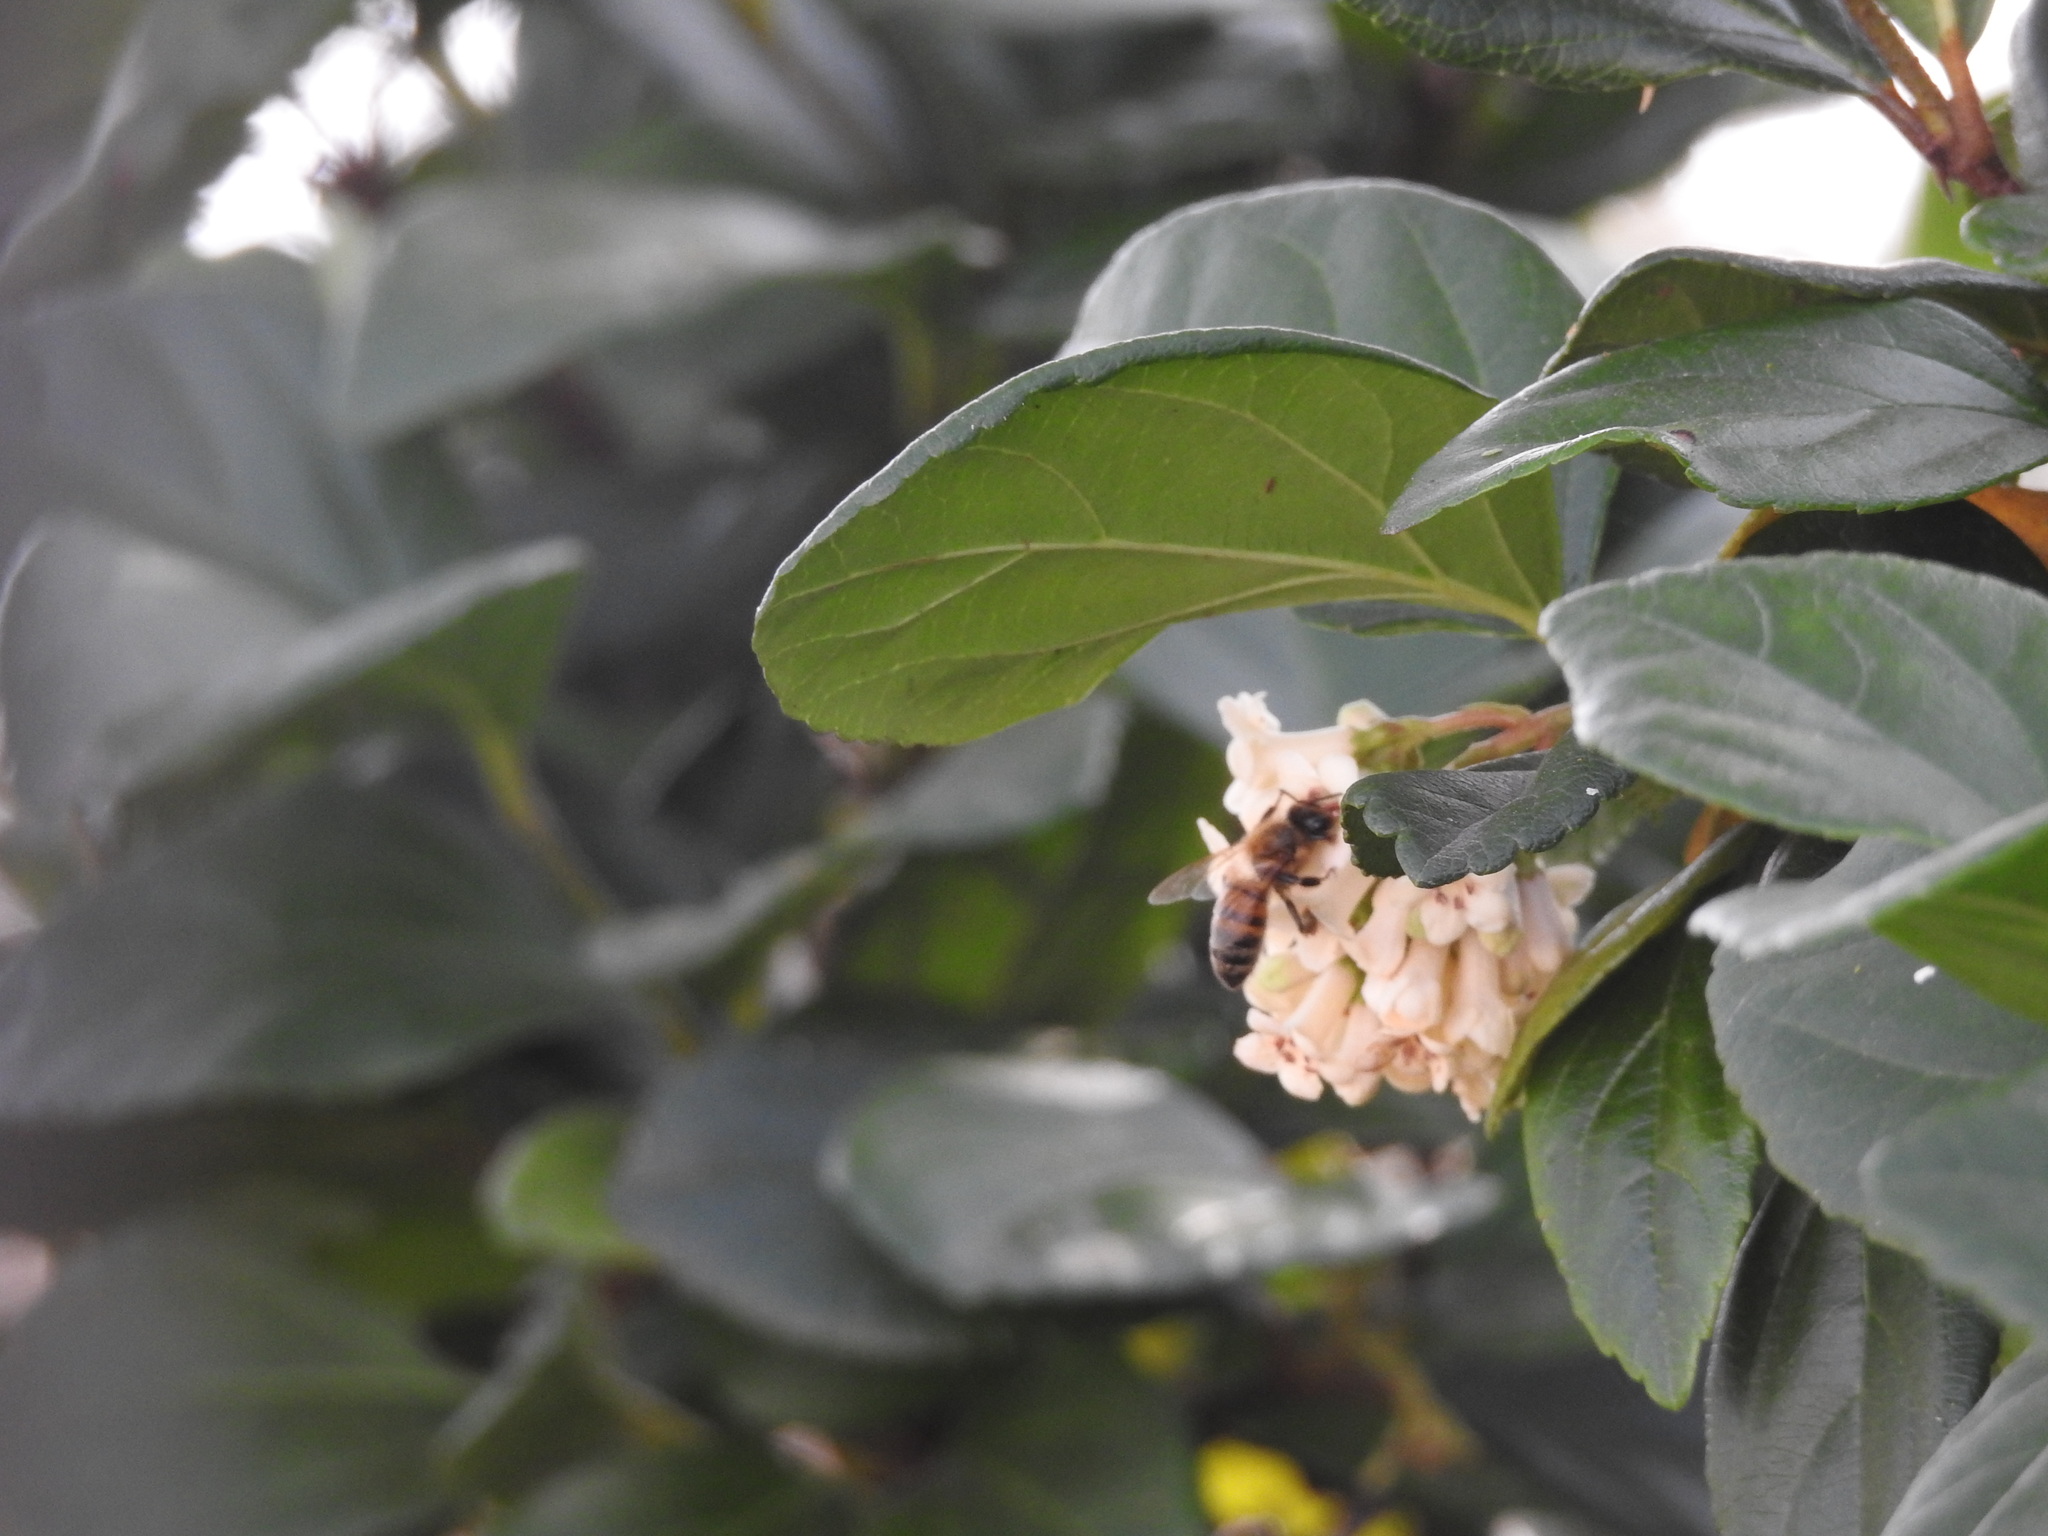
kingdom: Animalia
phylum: Arthropoda
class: Insecta
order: Hymenoptera
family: Apidae
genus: Apis
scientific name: Apis mellifera
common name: Honey bee
